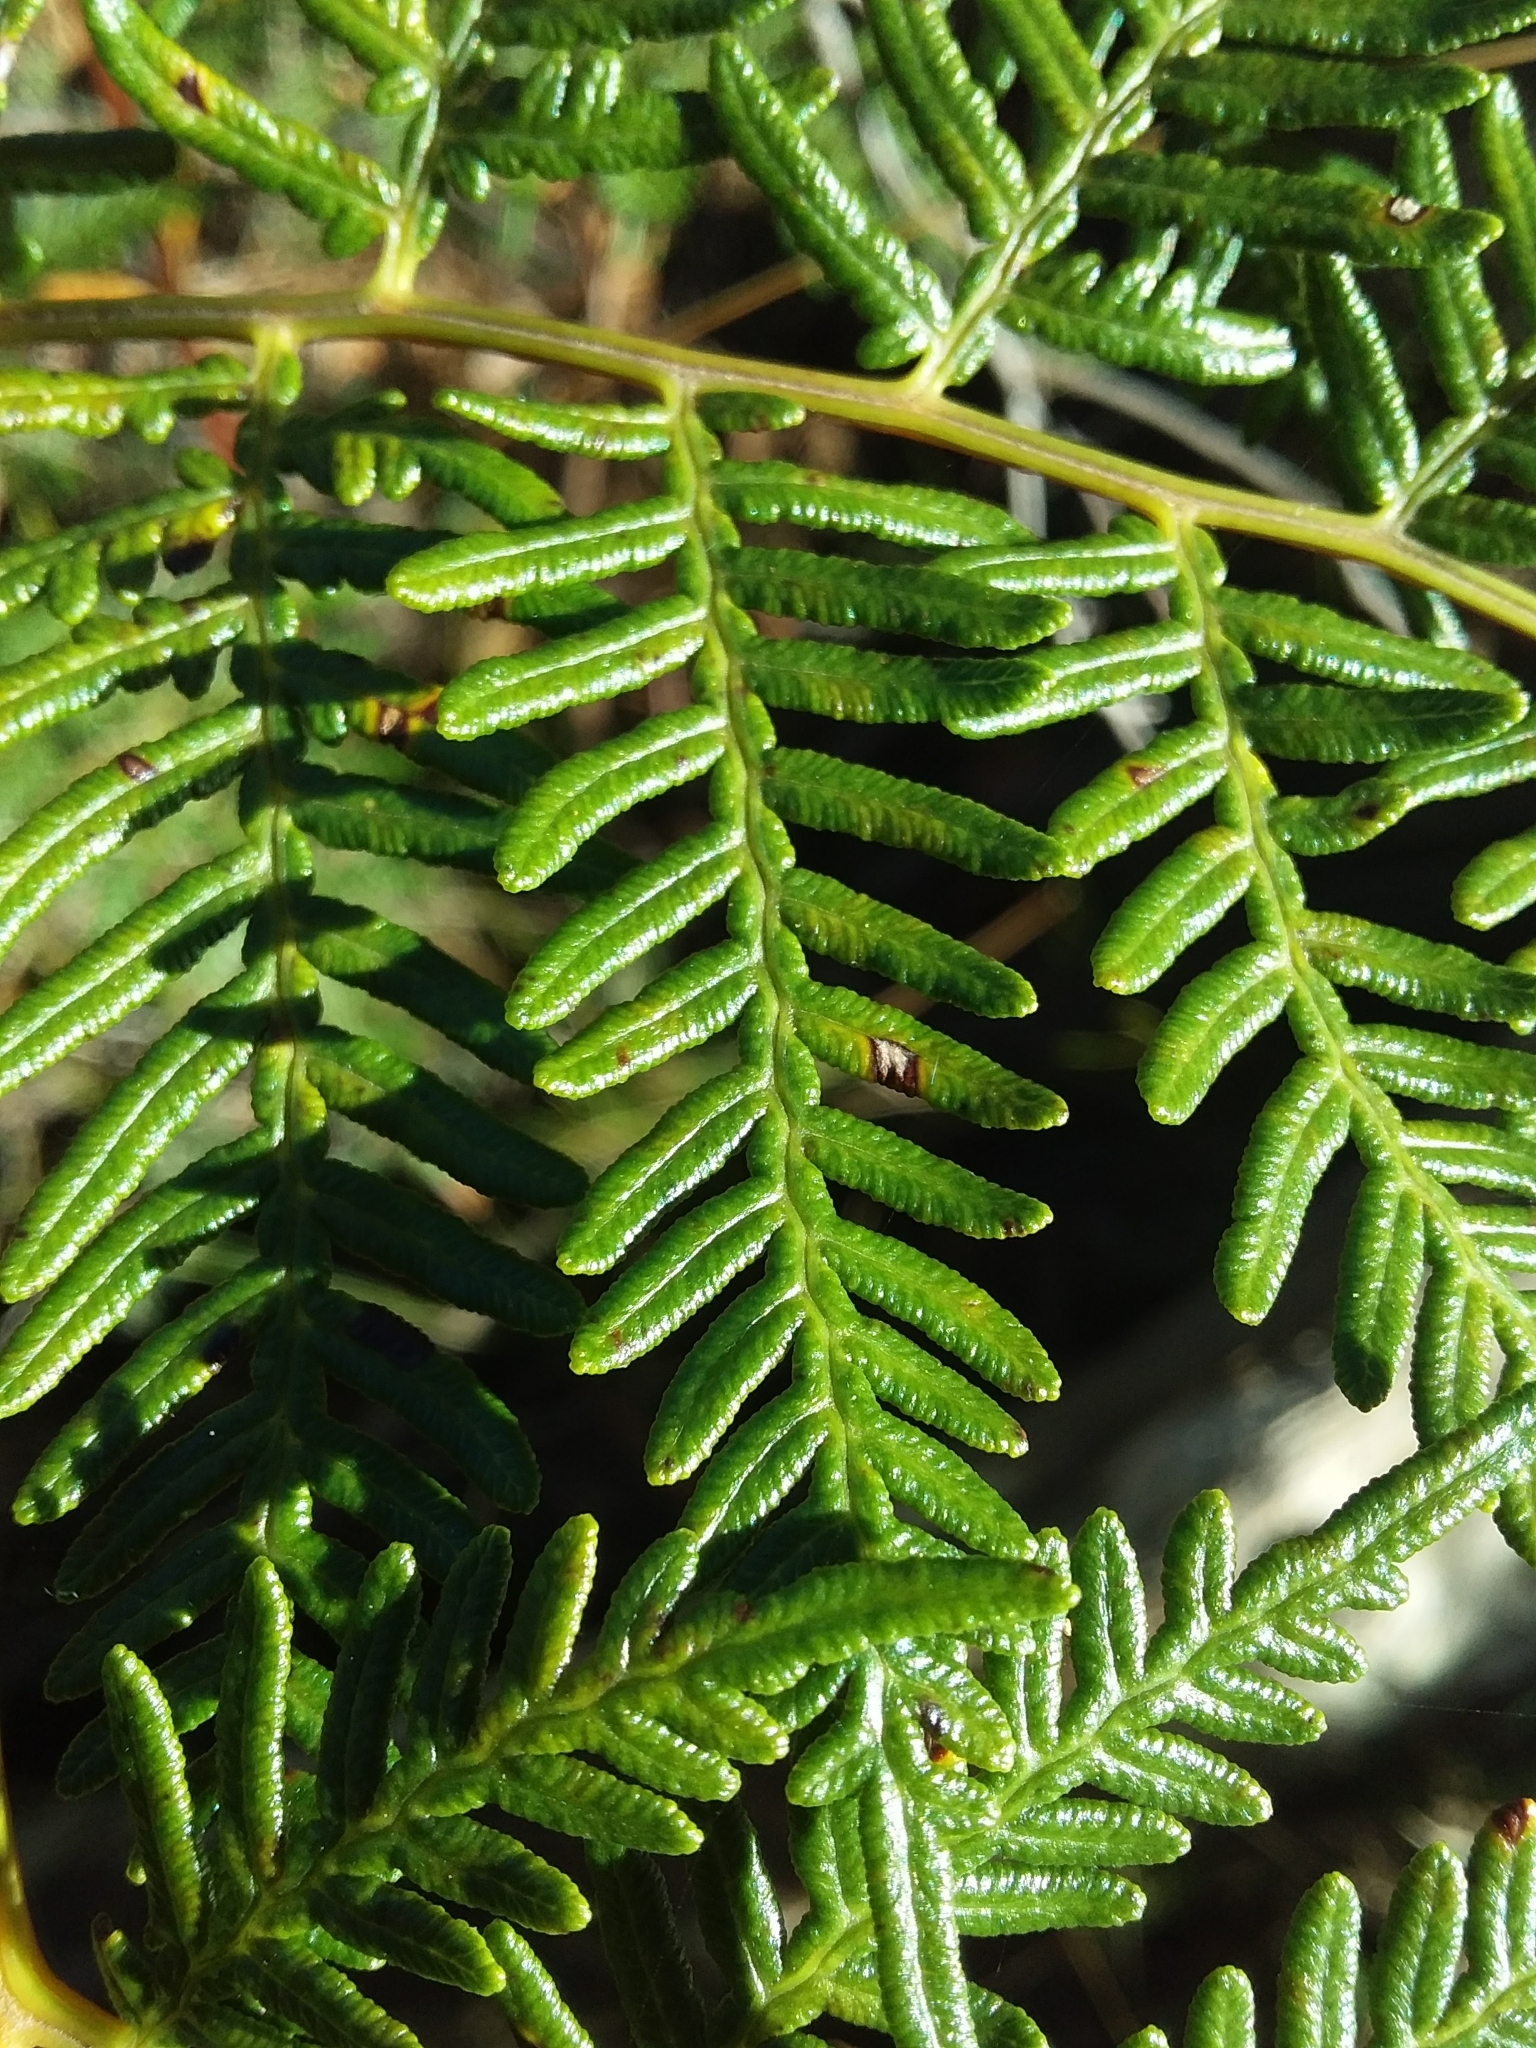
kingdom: Plantae
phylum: Tracheophyta
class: Polypodiopsida
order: Polypodiales
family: Dennstaedtiaceae
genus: Pteridium
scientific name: Pteridium esculentum
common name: Bracken fern
